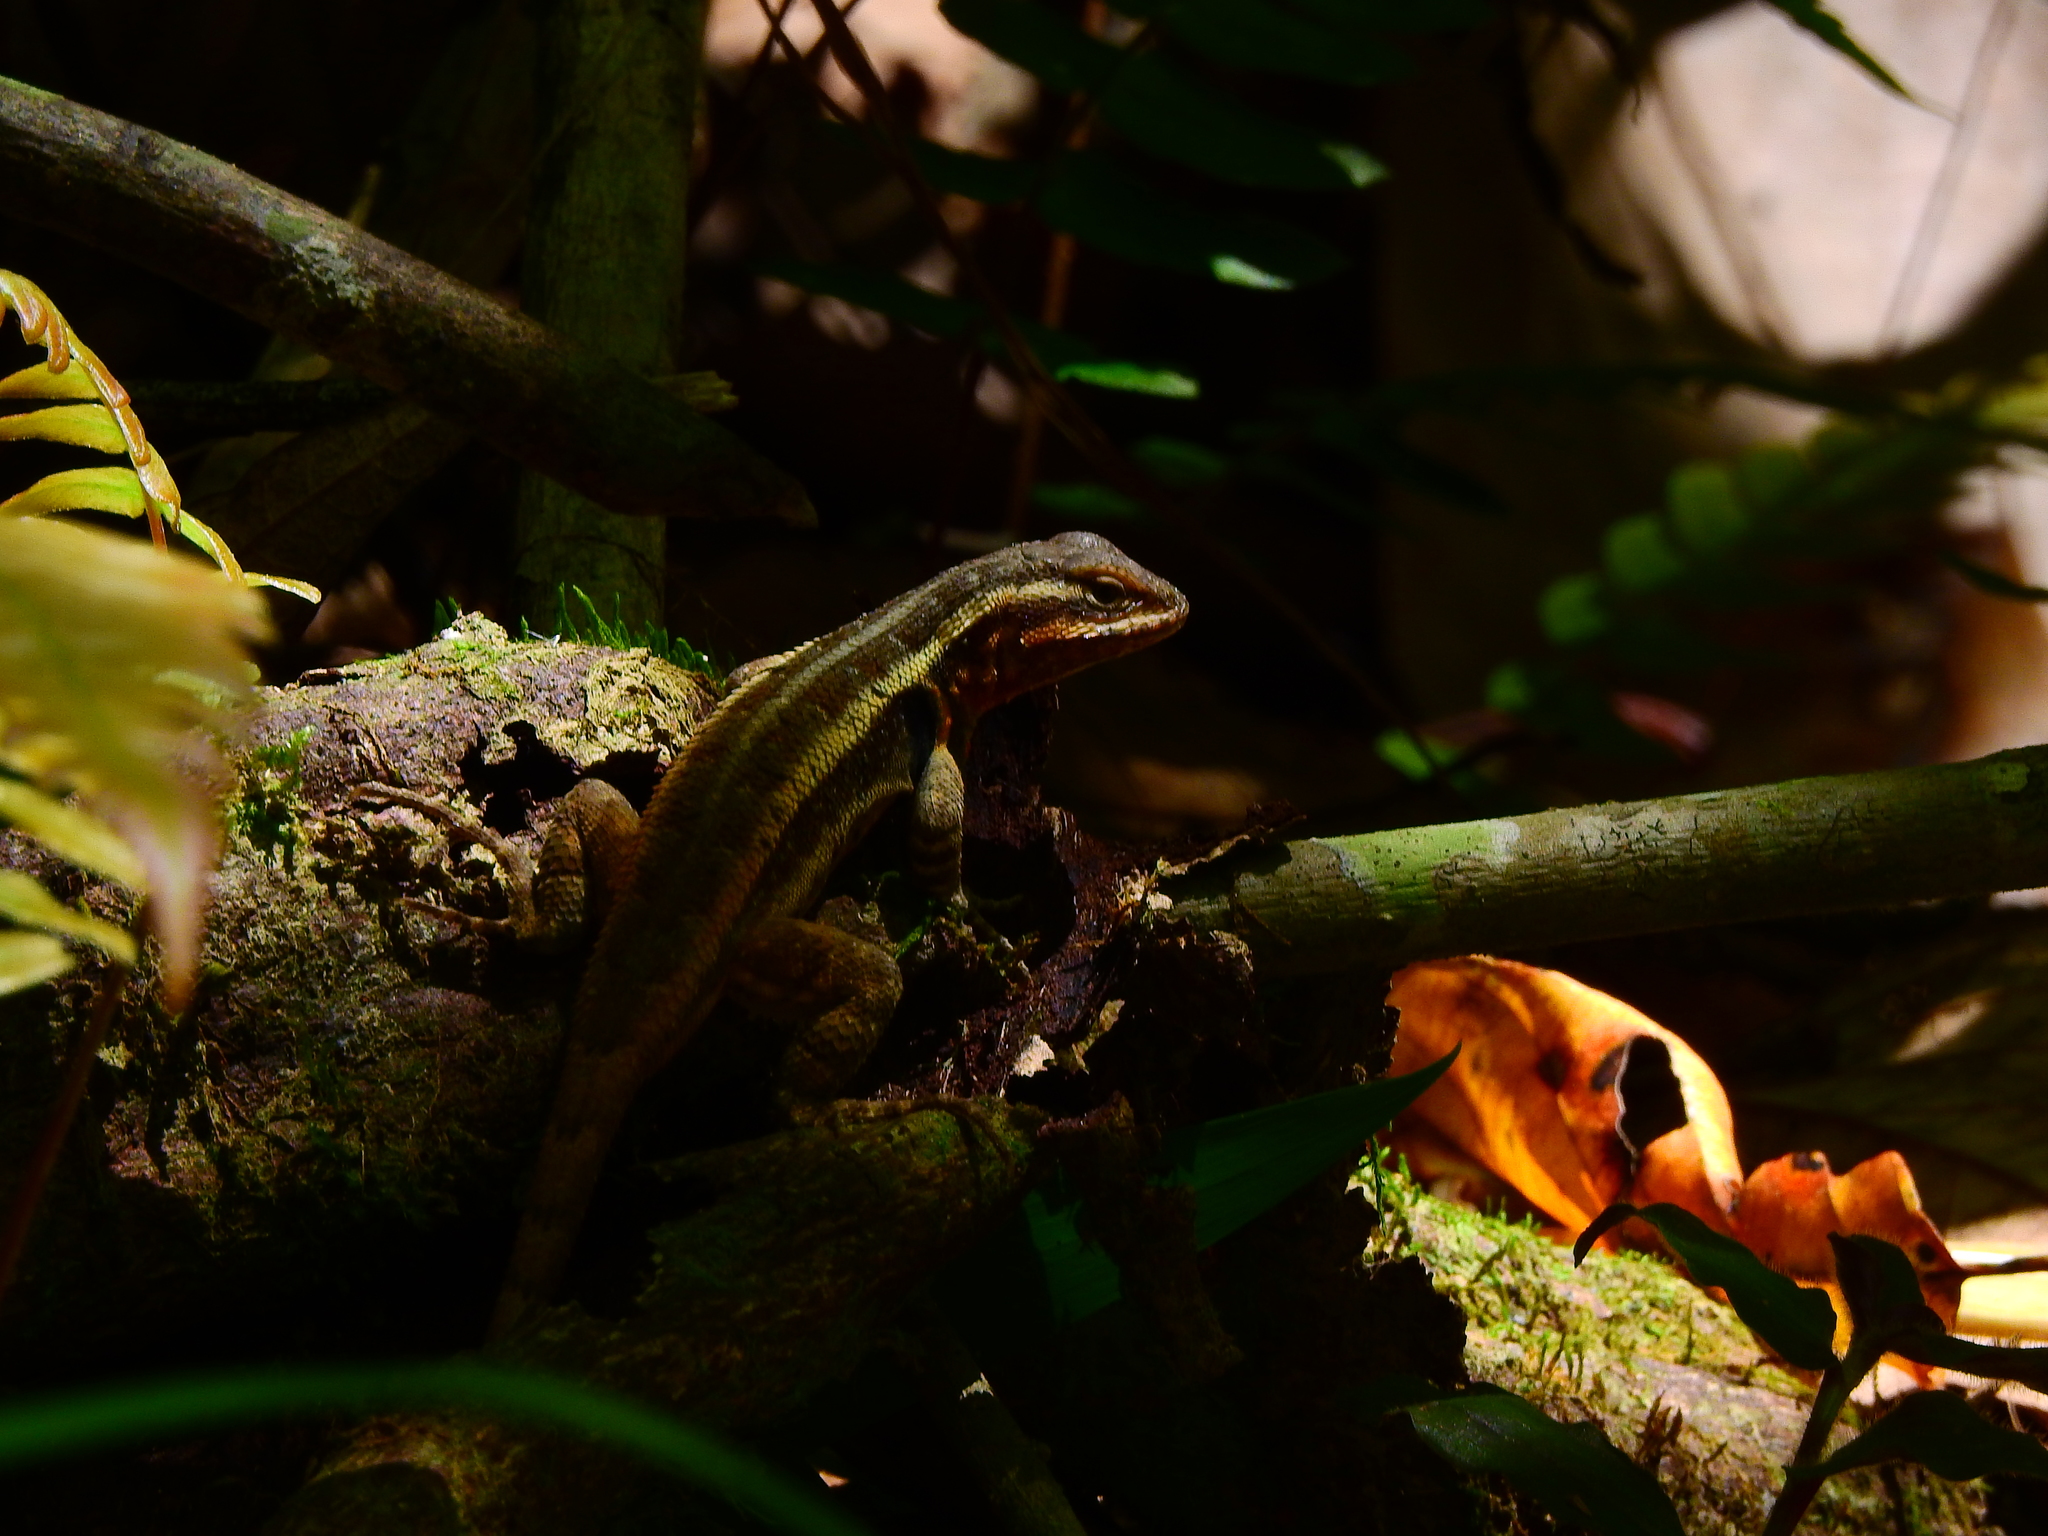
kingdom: Animalia
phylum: Chordata
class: Squamata
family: Phrynosomatidae
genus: Sceloporus
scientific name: Sceloporus variabilis
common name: Rosebelly lizard
